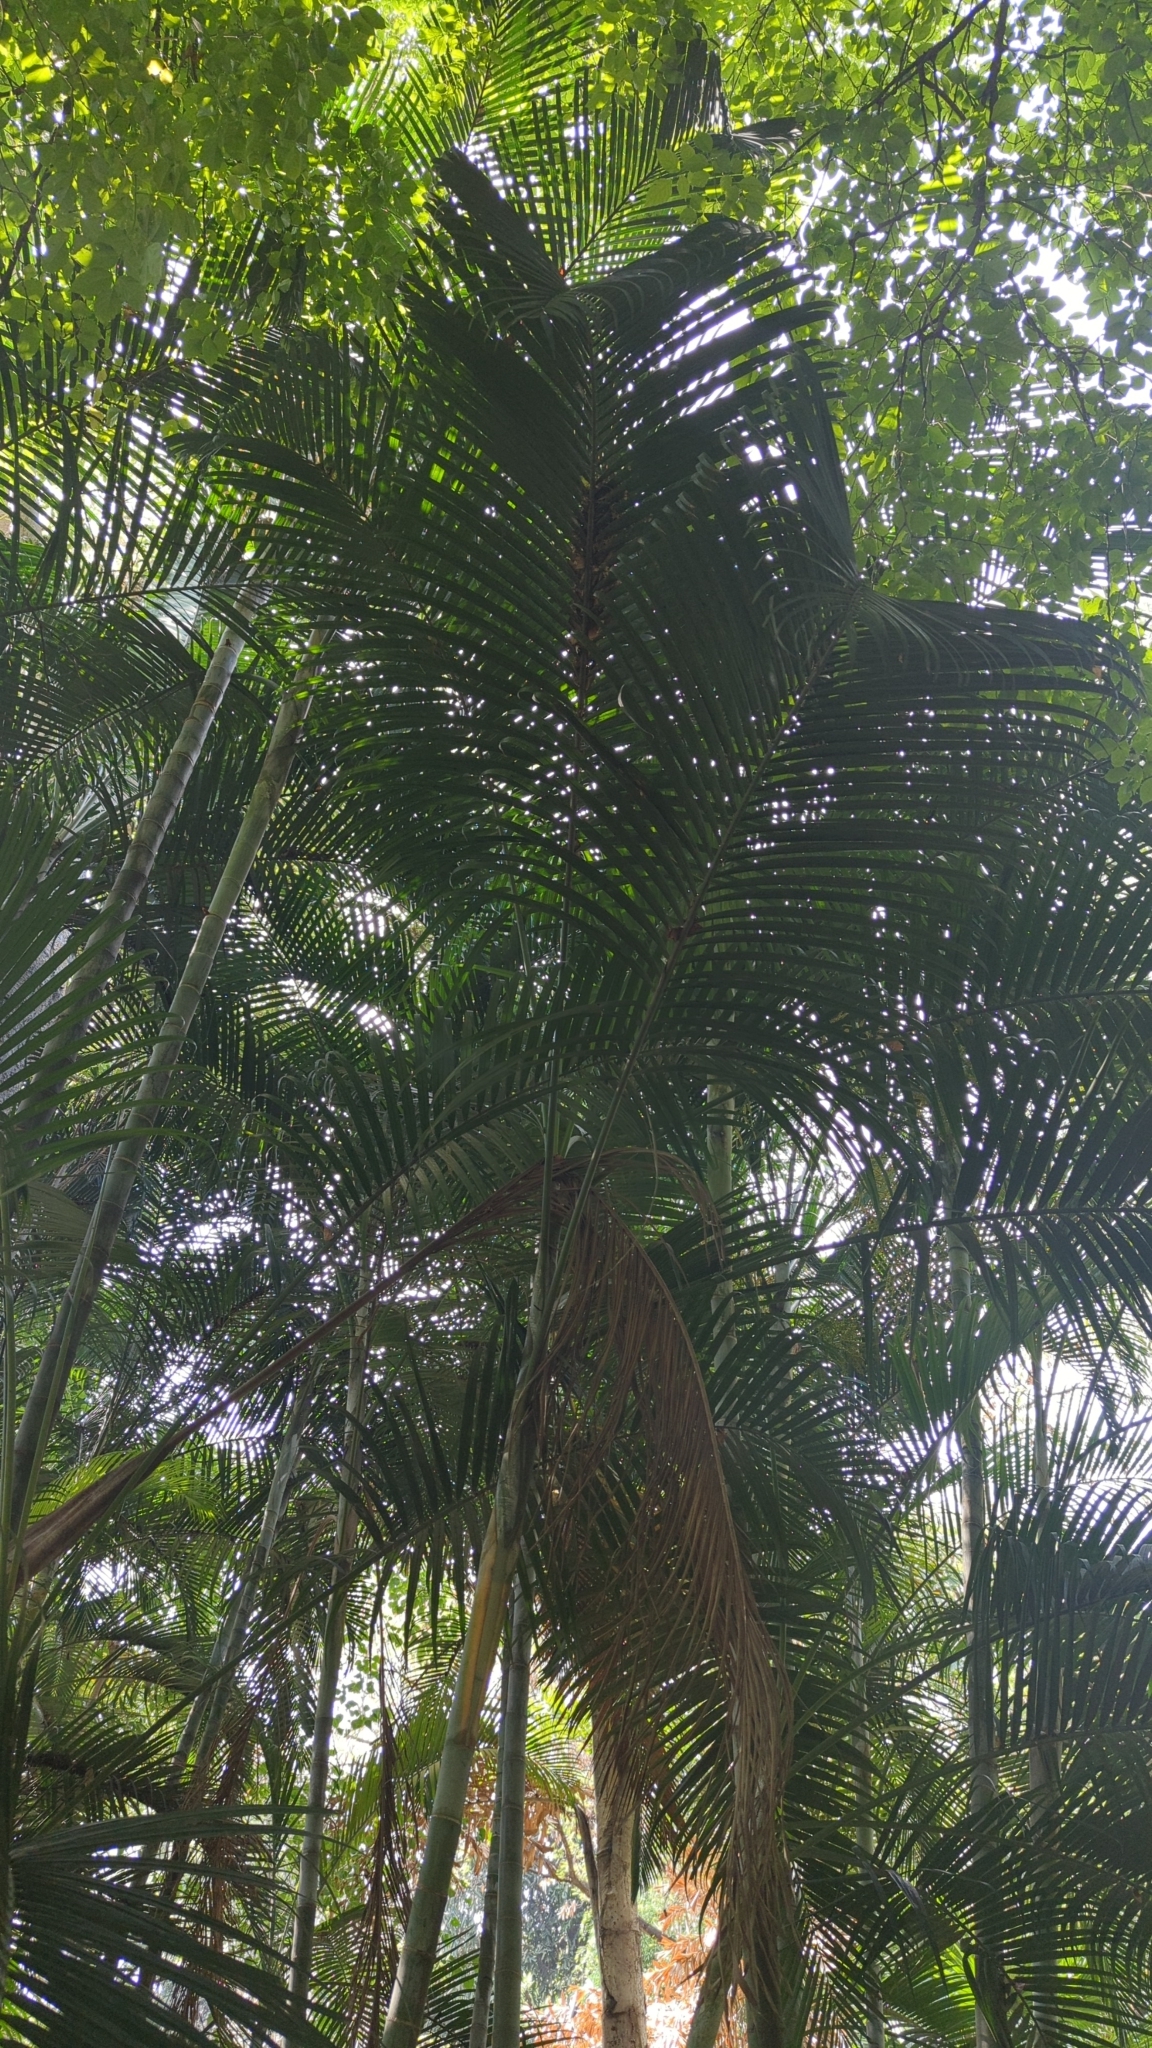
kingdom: Plantae
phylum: Tracheophyta
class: Liliopsida
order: Arecales
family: Arecaceae
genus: Dypsis
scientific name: Dypsis lutescens
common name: Yellow butterfly palm
